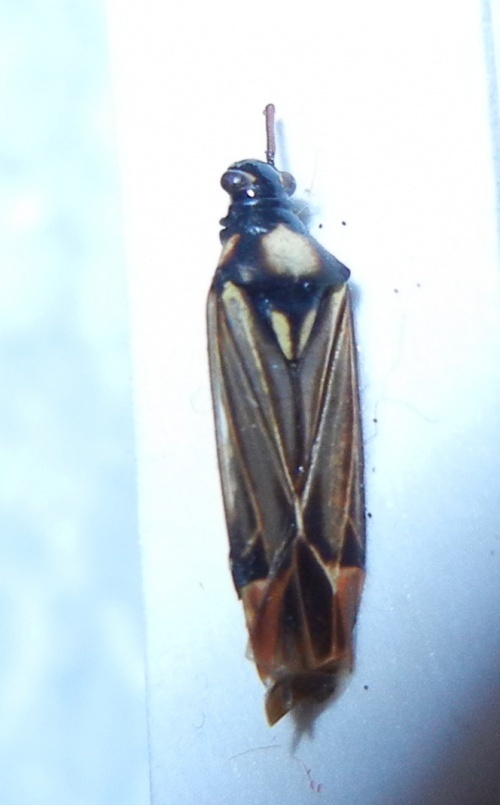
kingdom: Animalia
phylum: Arthropoda
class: Insecta
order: Hemiptera
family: Miridae
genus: Miris
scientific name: Miris striatus
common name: Fine streaked bugkin
